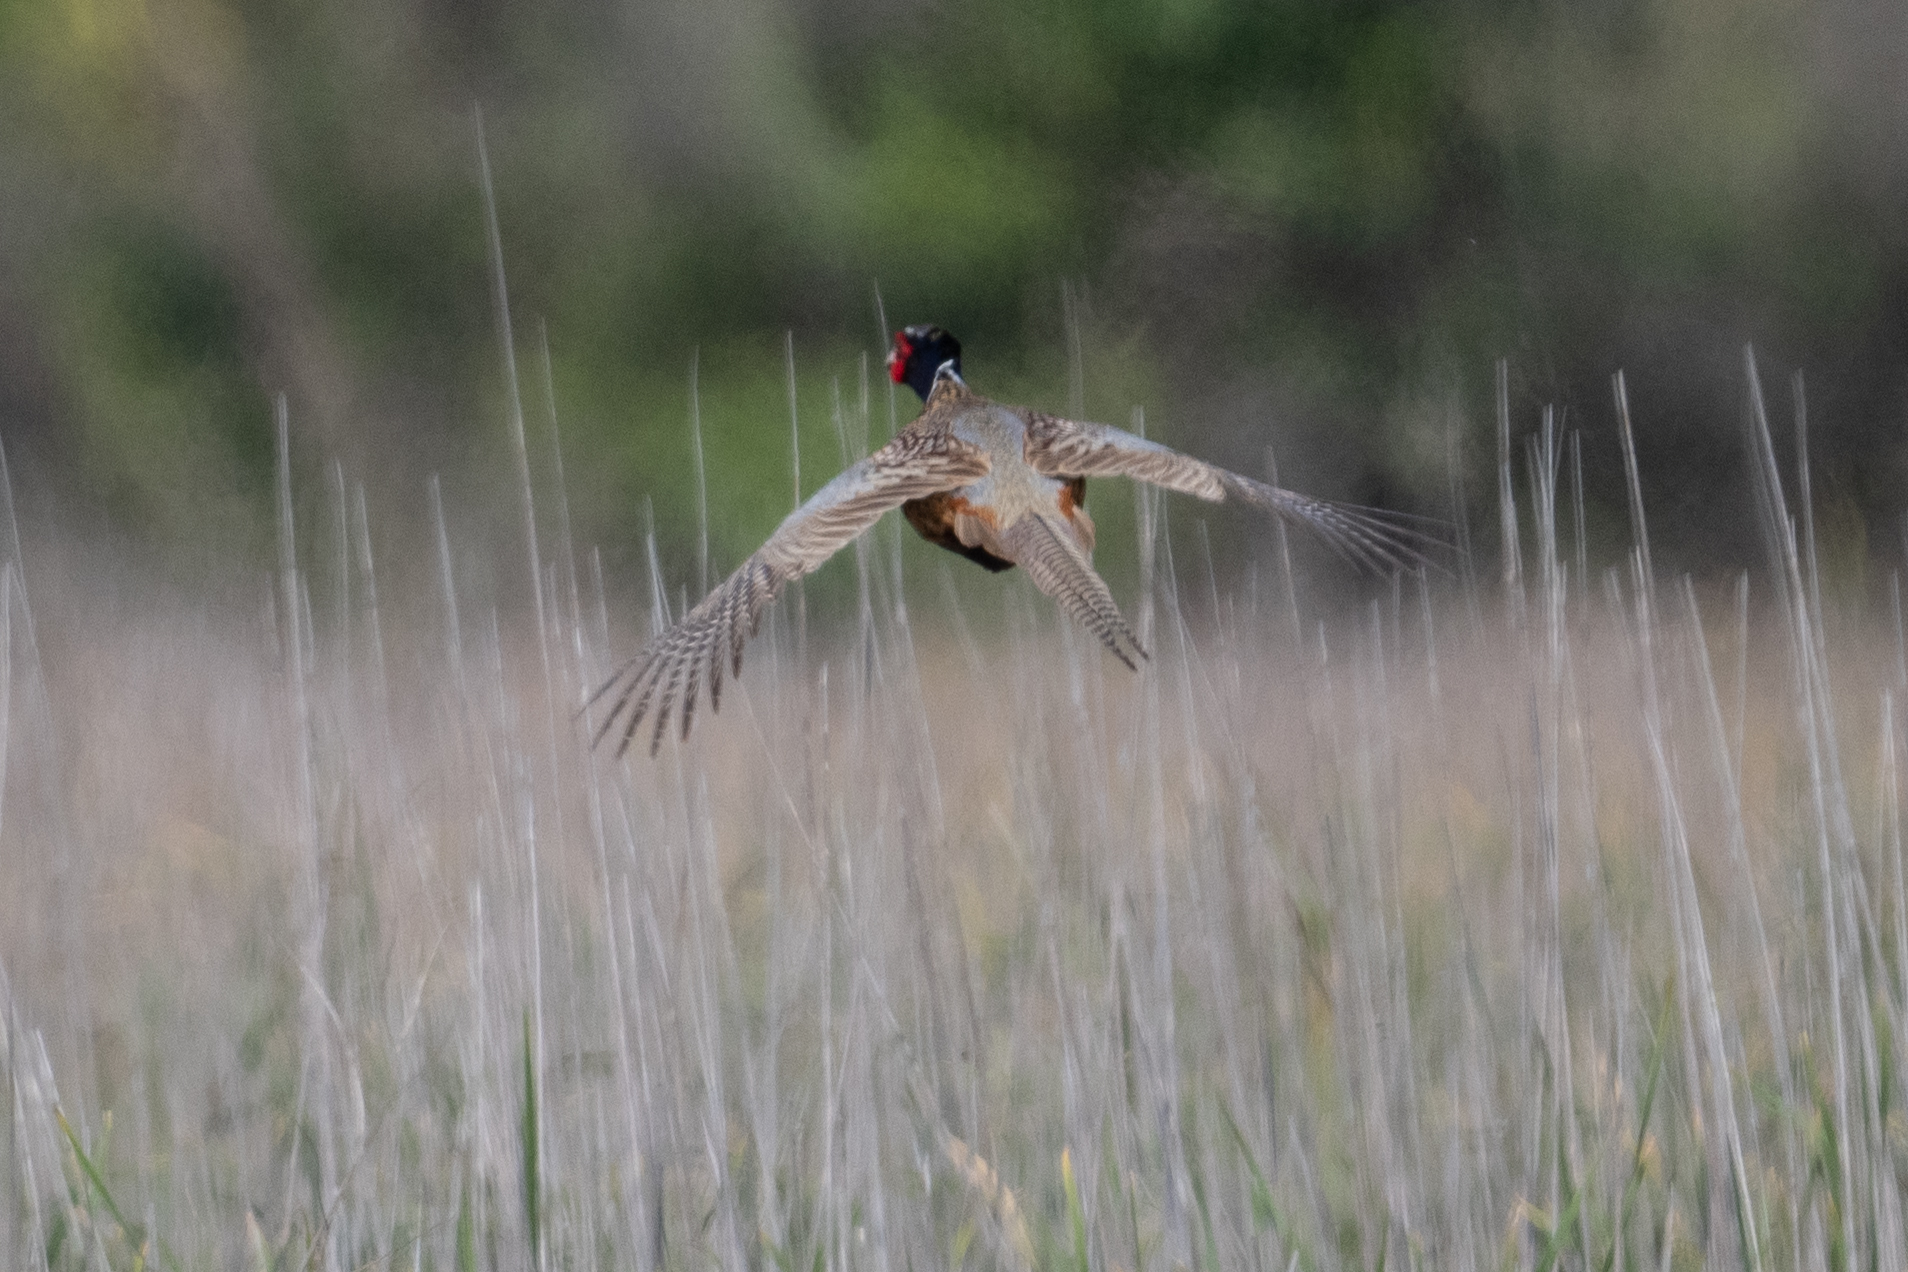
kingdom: Animalia
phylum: Chordata
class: Aves
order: Galliformes
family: Phasianidae
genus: Phasianus
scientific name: Phasianus colchicus
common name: Common pheasant
